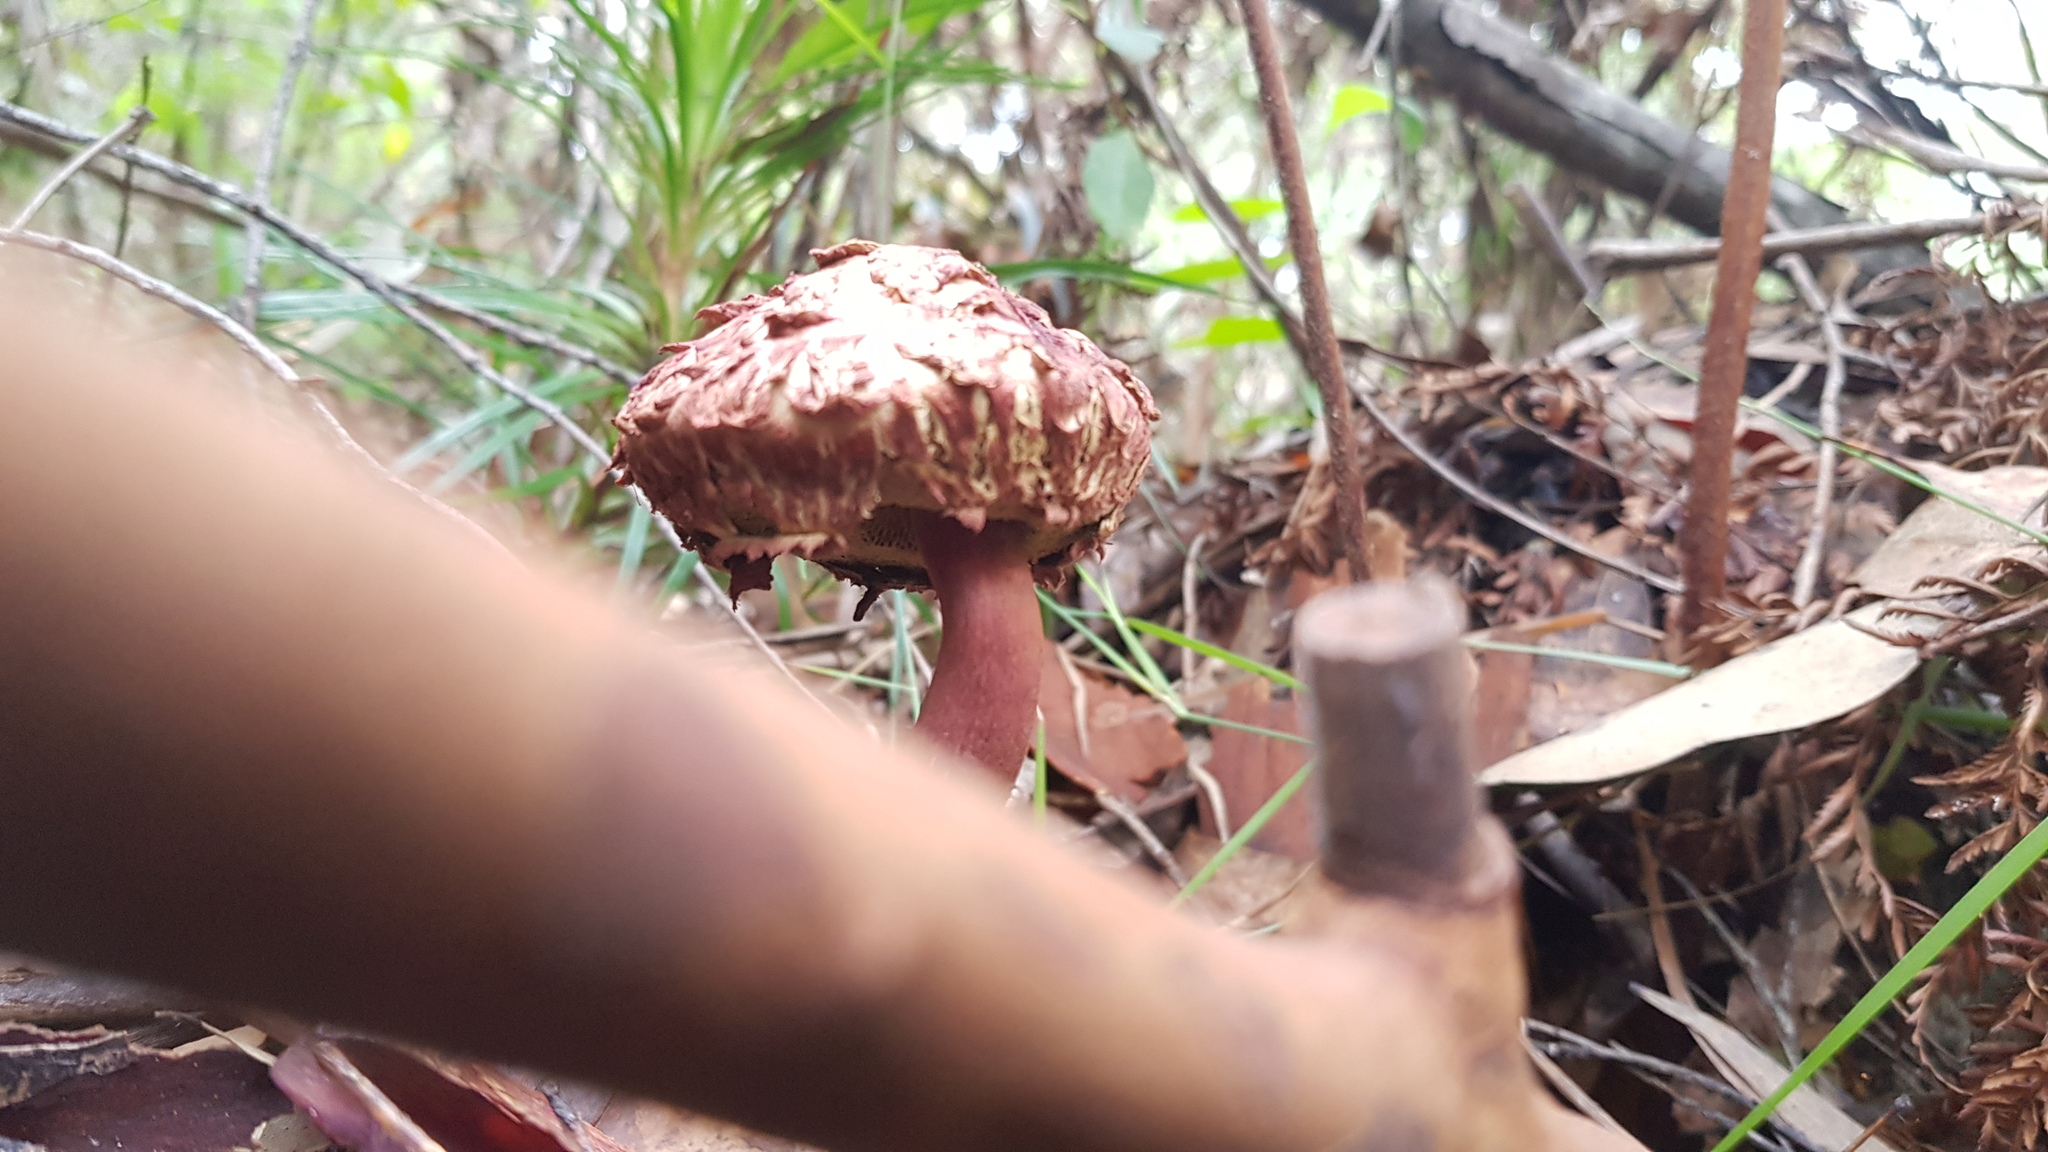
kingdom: Fungi
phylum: Basidiomycota
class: Agaricomycetes
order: Boletales
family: Boletaceae
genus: Boletellus
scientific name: Boletellus emodensis
